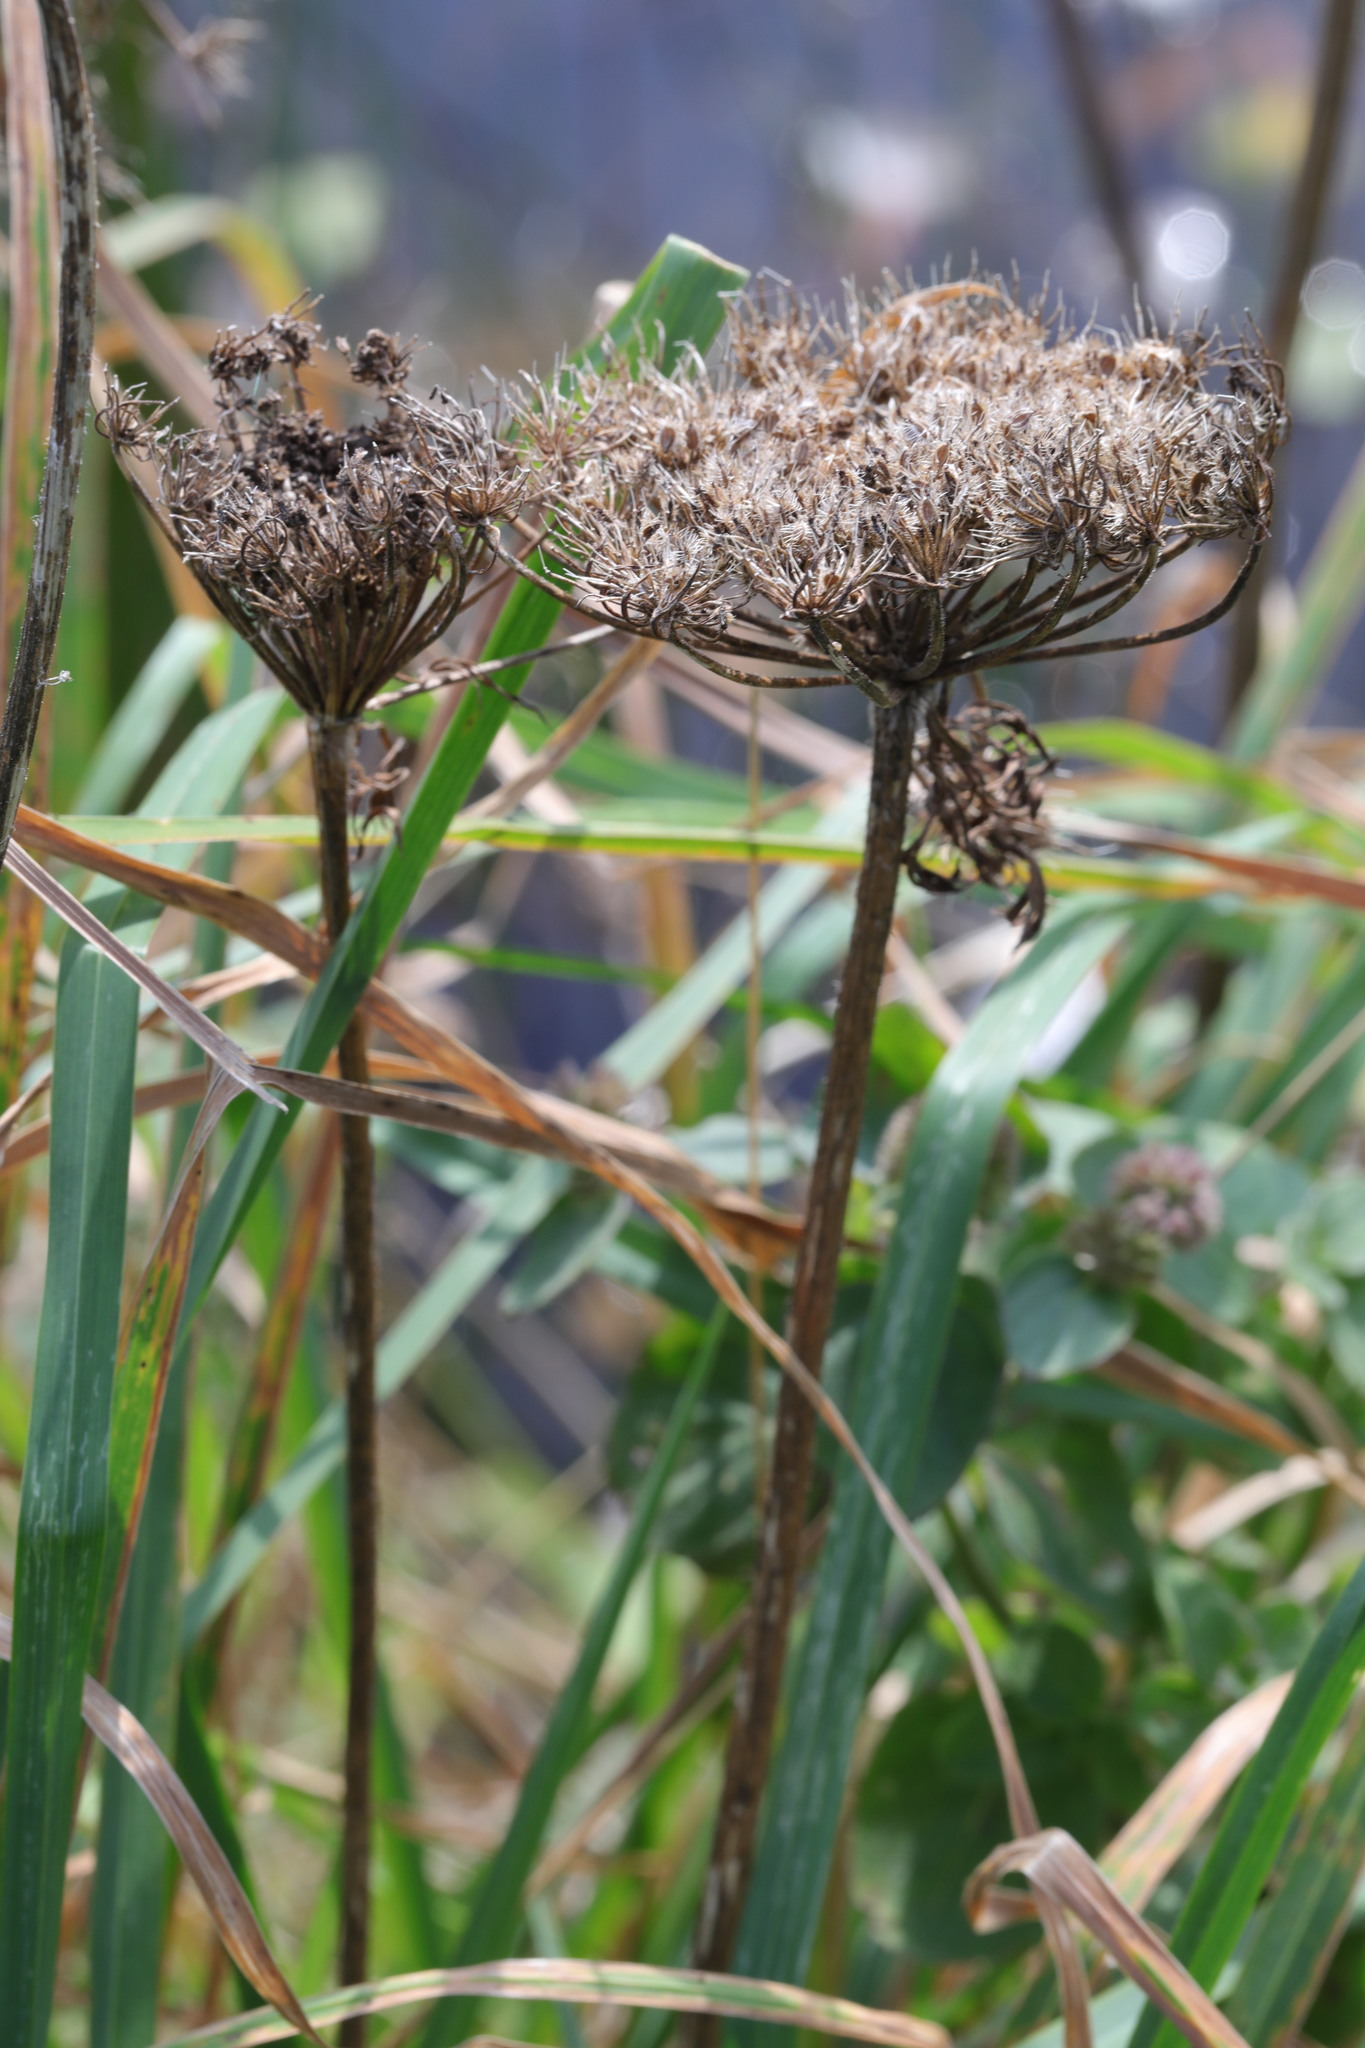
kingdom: Plantae
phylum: Tracheophyta
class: Magnoliopsida
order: Apiales
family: Apiaceae
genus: Daucus
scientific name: Daucus carota
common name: Wild carrot
